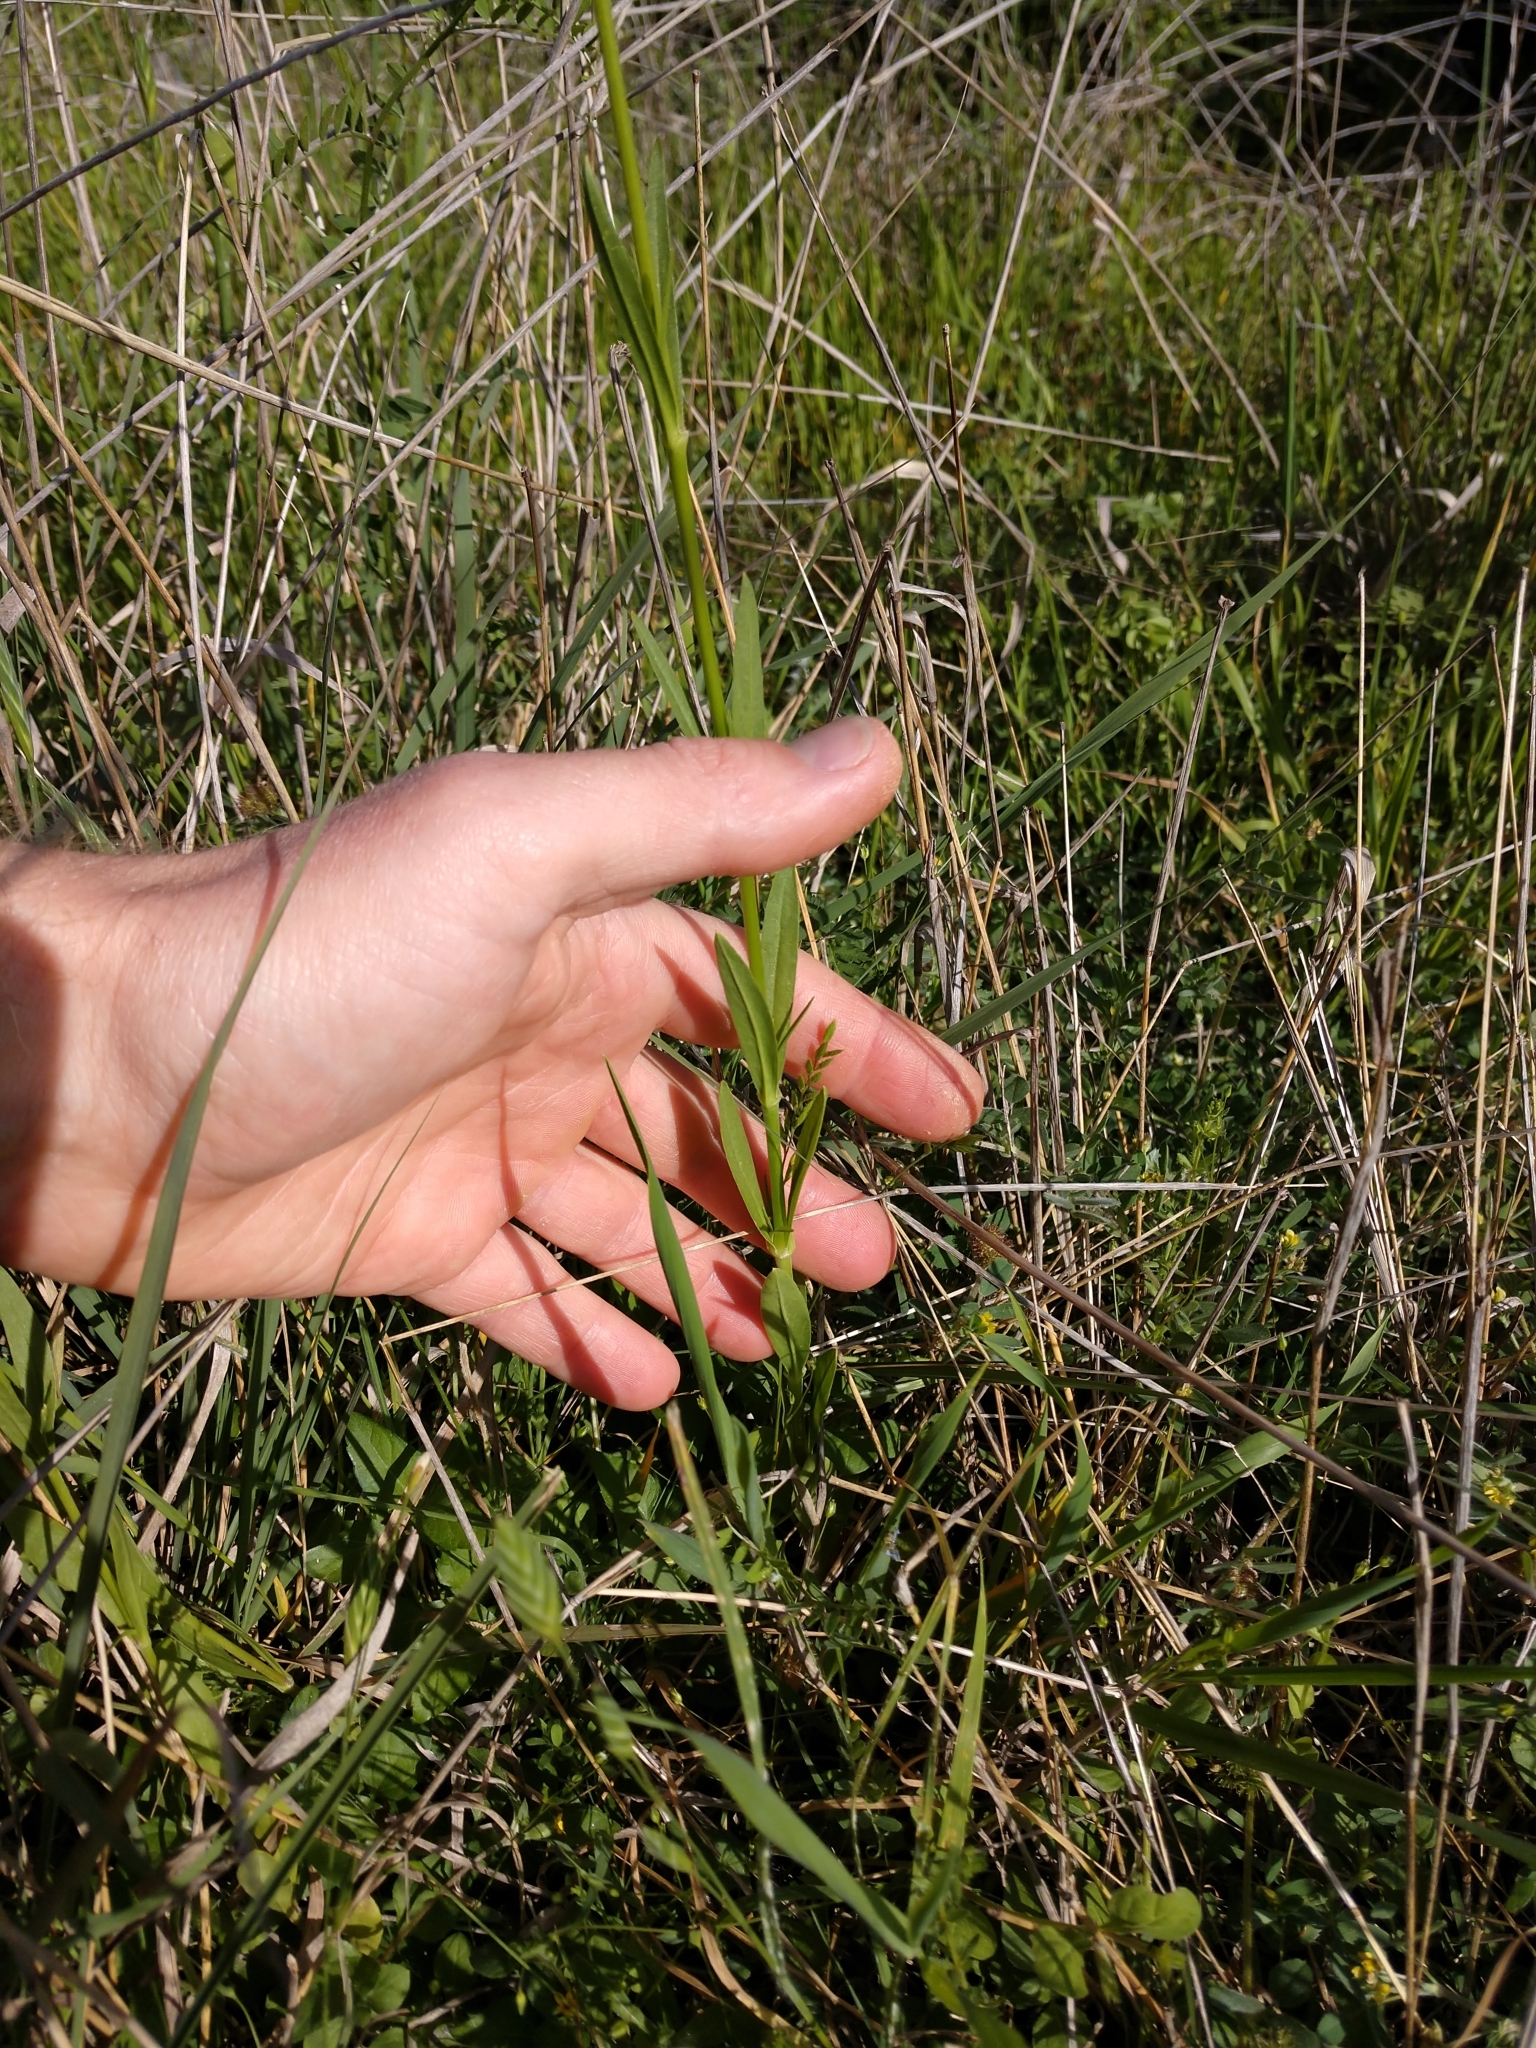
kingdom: Plantae
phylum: Tracheophyta
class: Magnoliopsida
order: Caryophyllales
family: Caryophyllaceae
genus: Silene
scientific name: Silene antirrhina
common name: Sleepy catchfly
